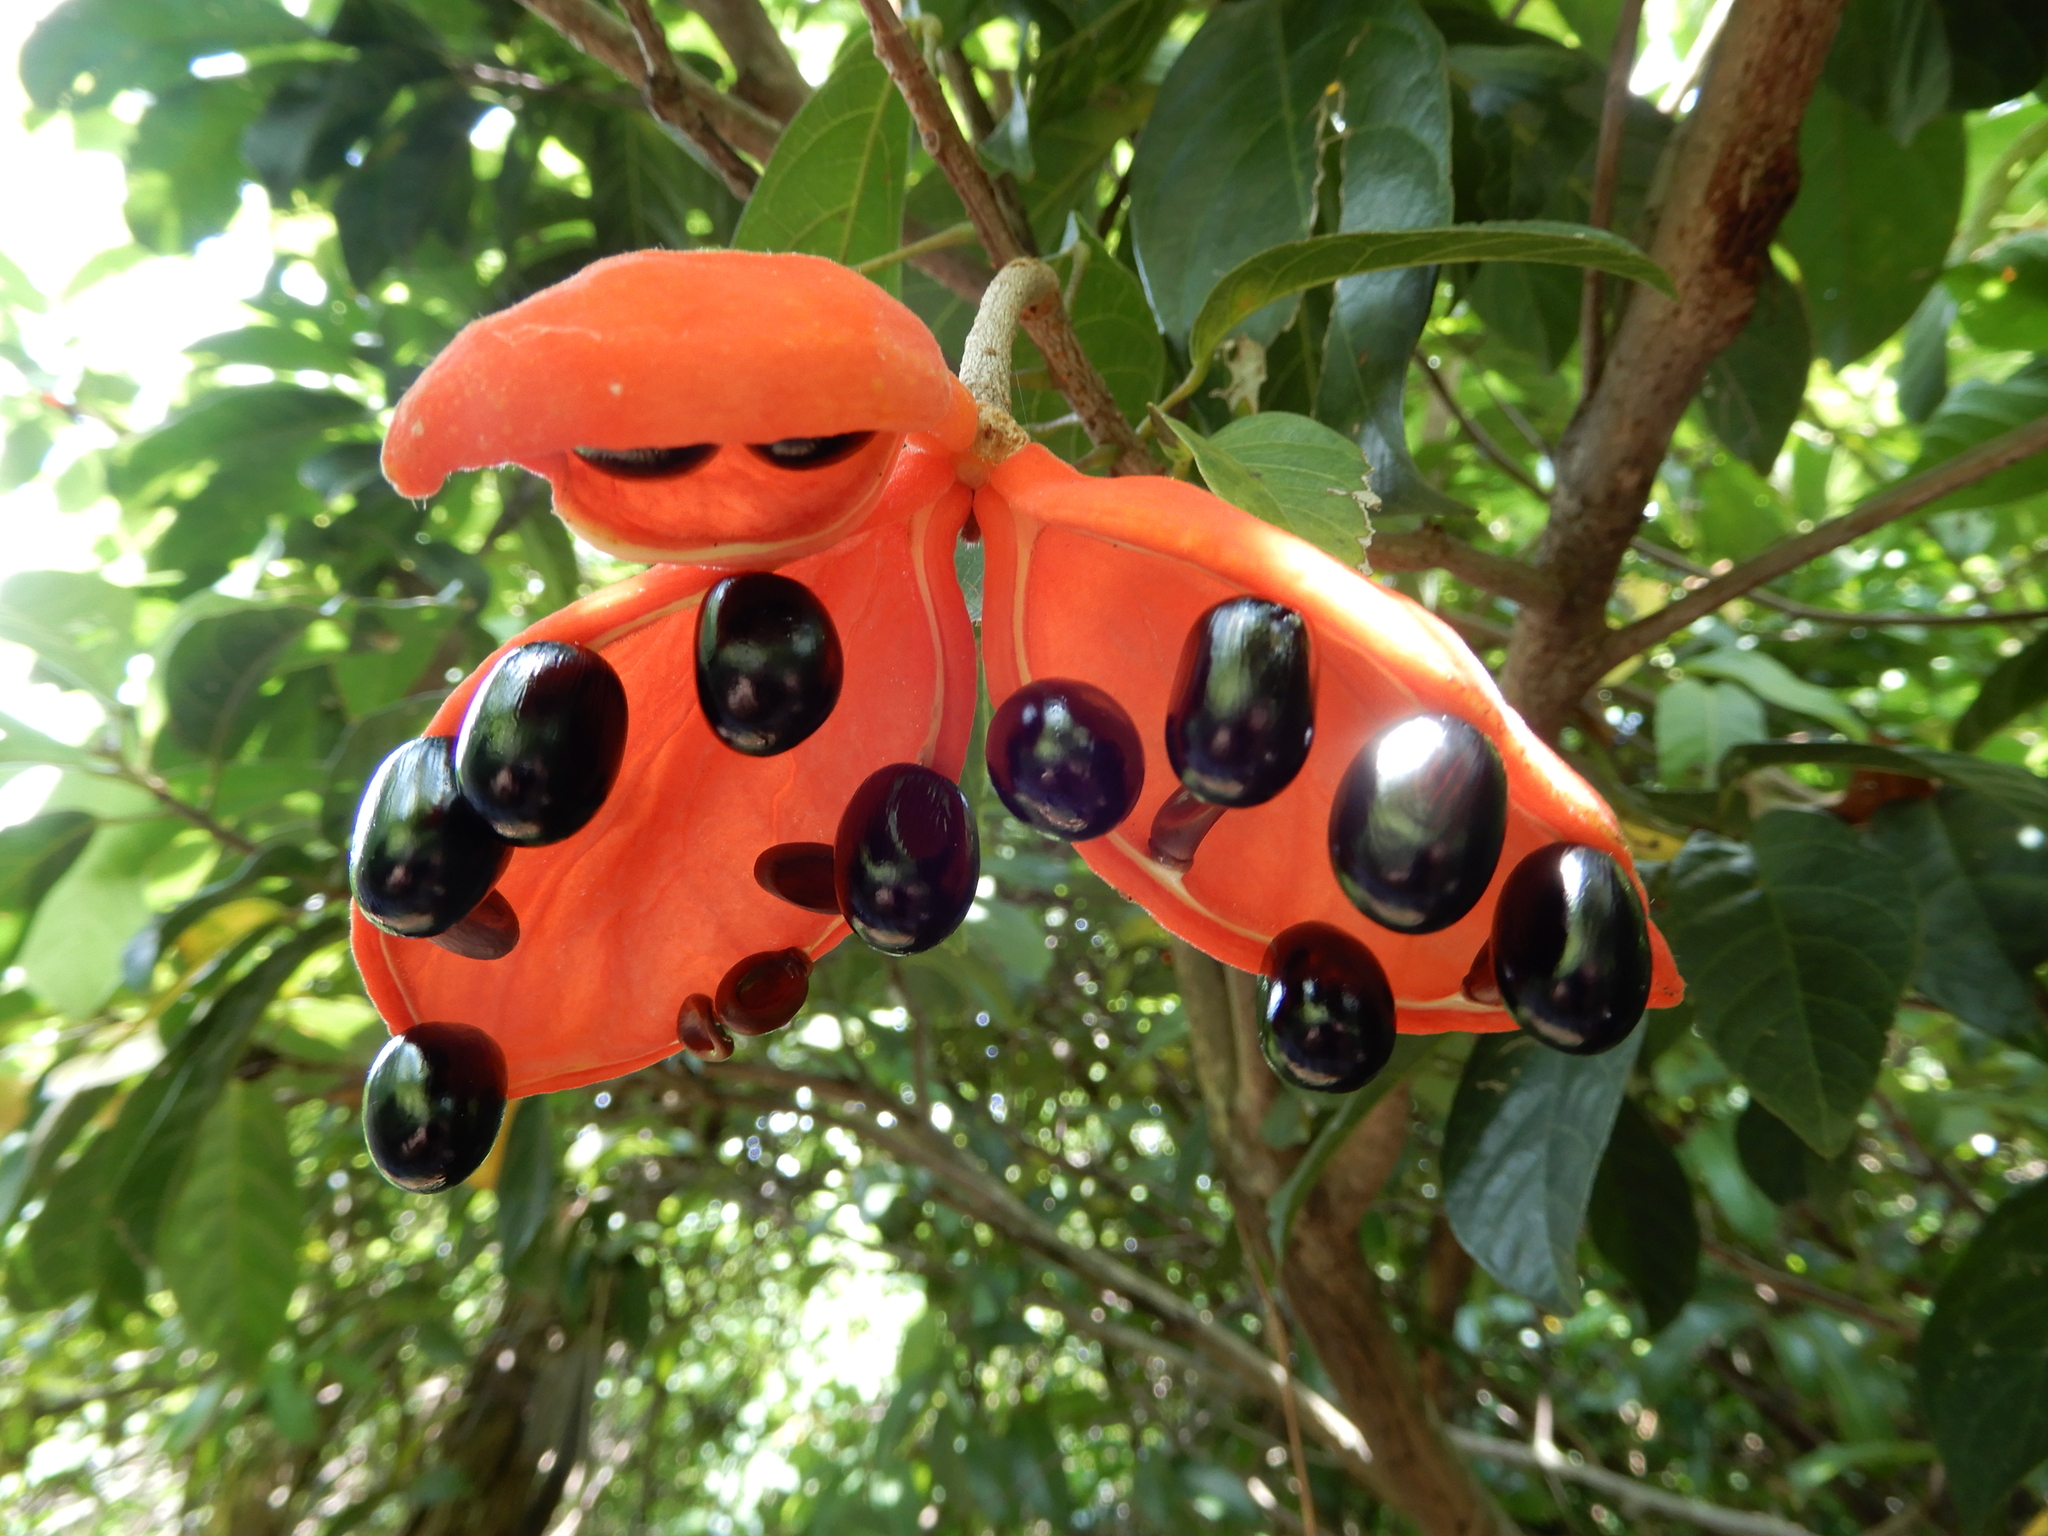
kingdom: Plantae
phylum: Tracheophyta
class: Magnoliopsida
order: Malvales
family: Malvaceae
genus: Sterculia
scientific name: Sterculia lanceolata
